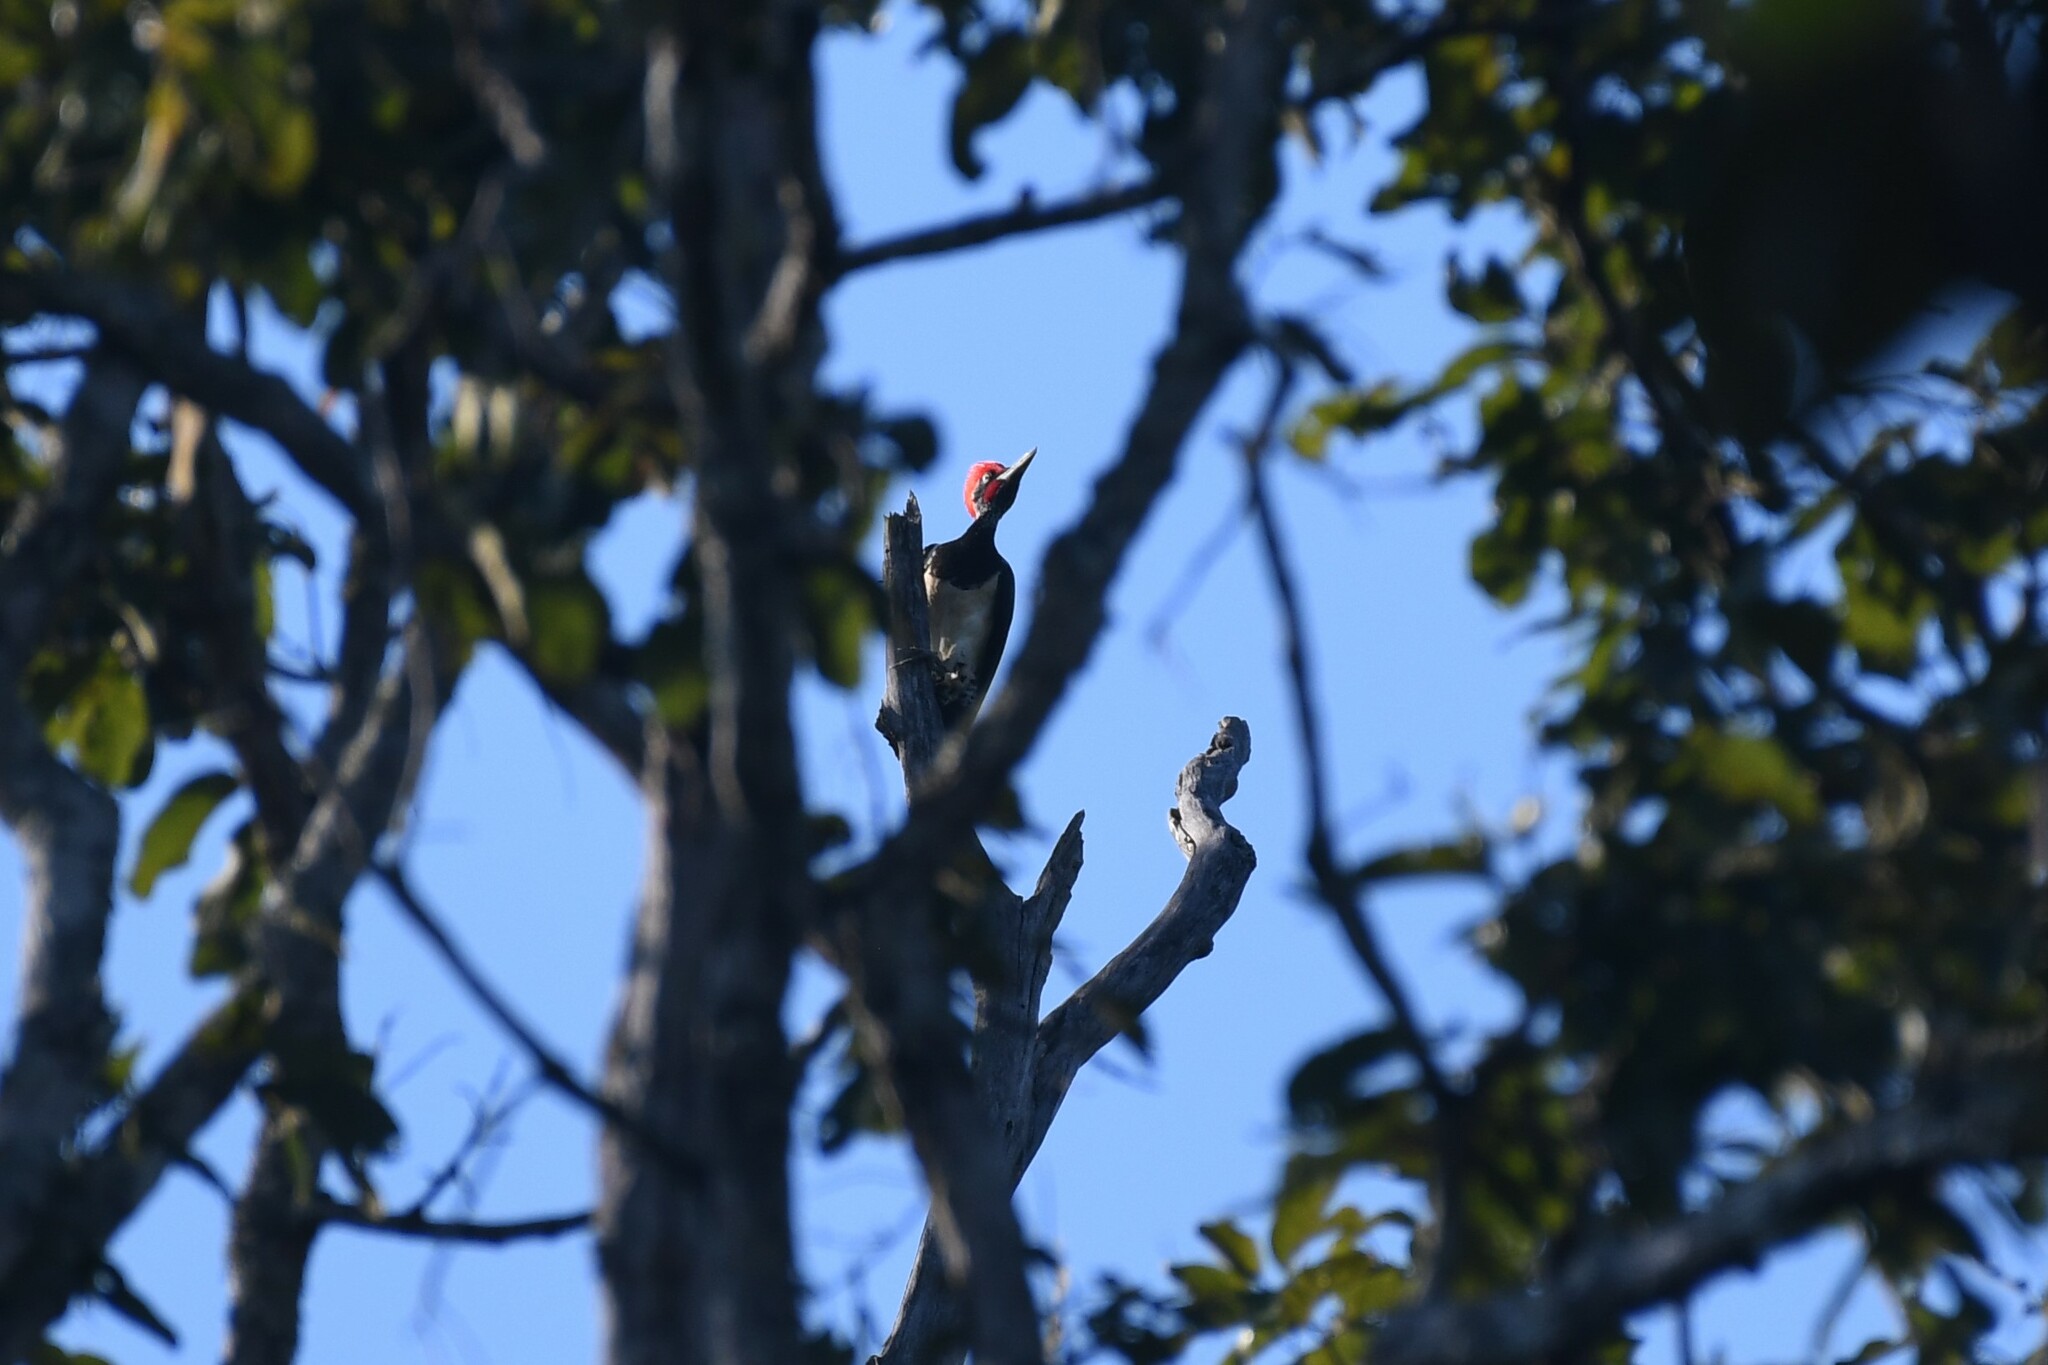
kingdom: Animalia
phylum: Chordata
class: Aves
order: Piciformes
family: Picidae
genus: Dryocopus
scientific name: Dryocopus javensis
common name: White-bellied woodpecker
